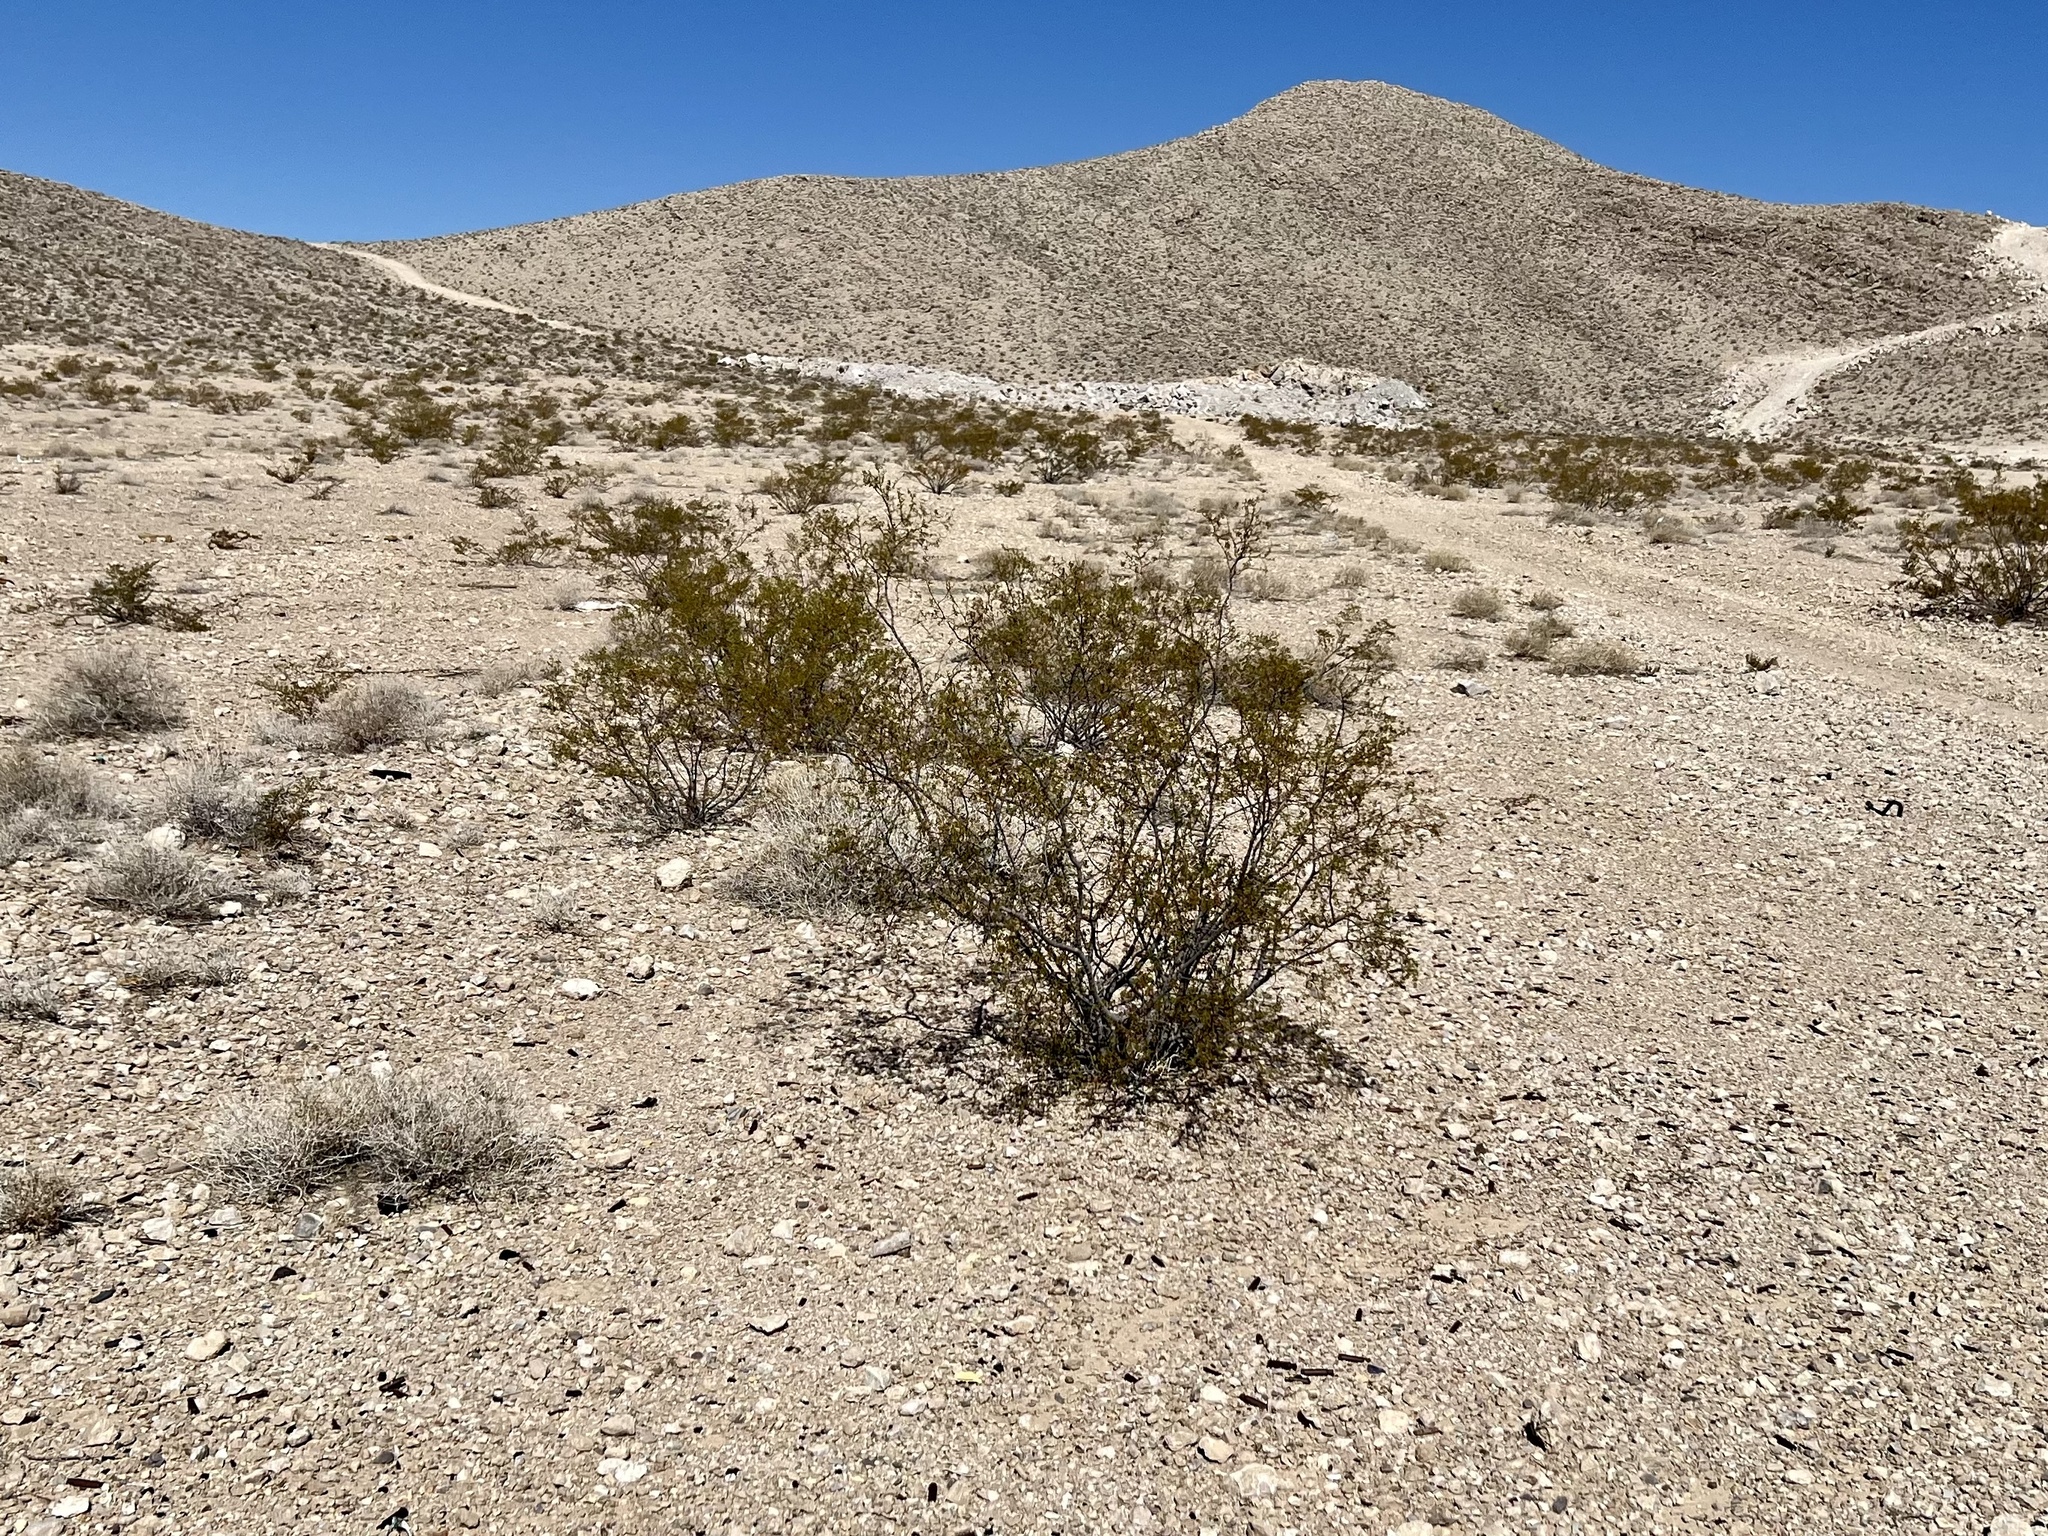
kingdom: Plantae
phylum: Tracheophyta
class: Magnoliopsida
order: Zygophyllales
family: Zygophyllaceae
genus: Larrea
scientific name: Larrea tridentata
